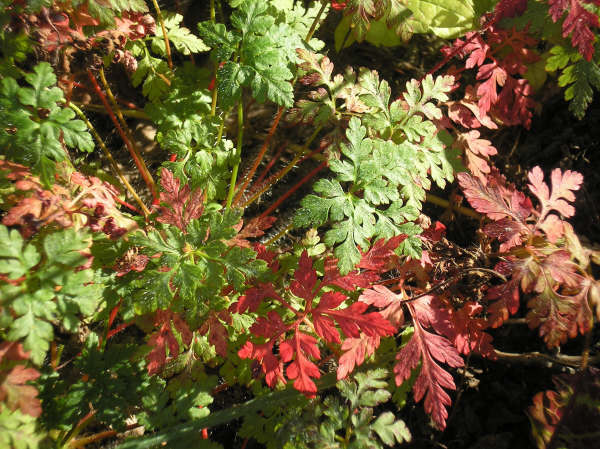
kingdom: Plantae
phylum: Tracheophyta
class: Magnoliopsida
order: Geraniales
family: Geraniaceae
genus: Geranium
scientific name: Geranium robertianum
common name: Herb-robert
